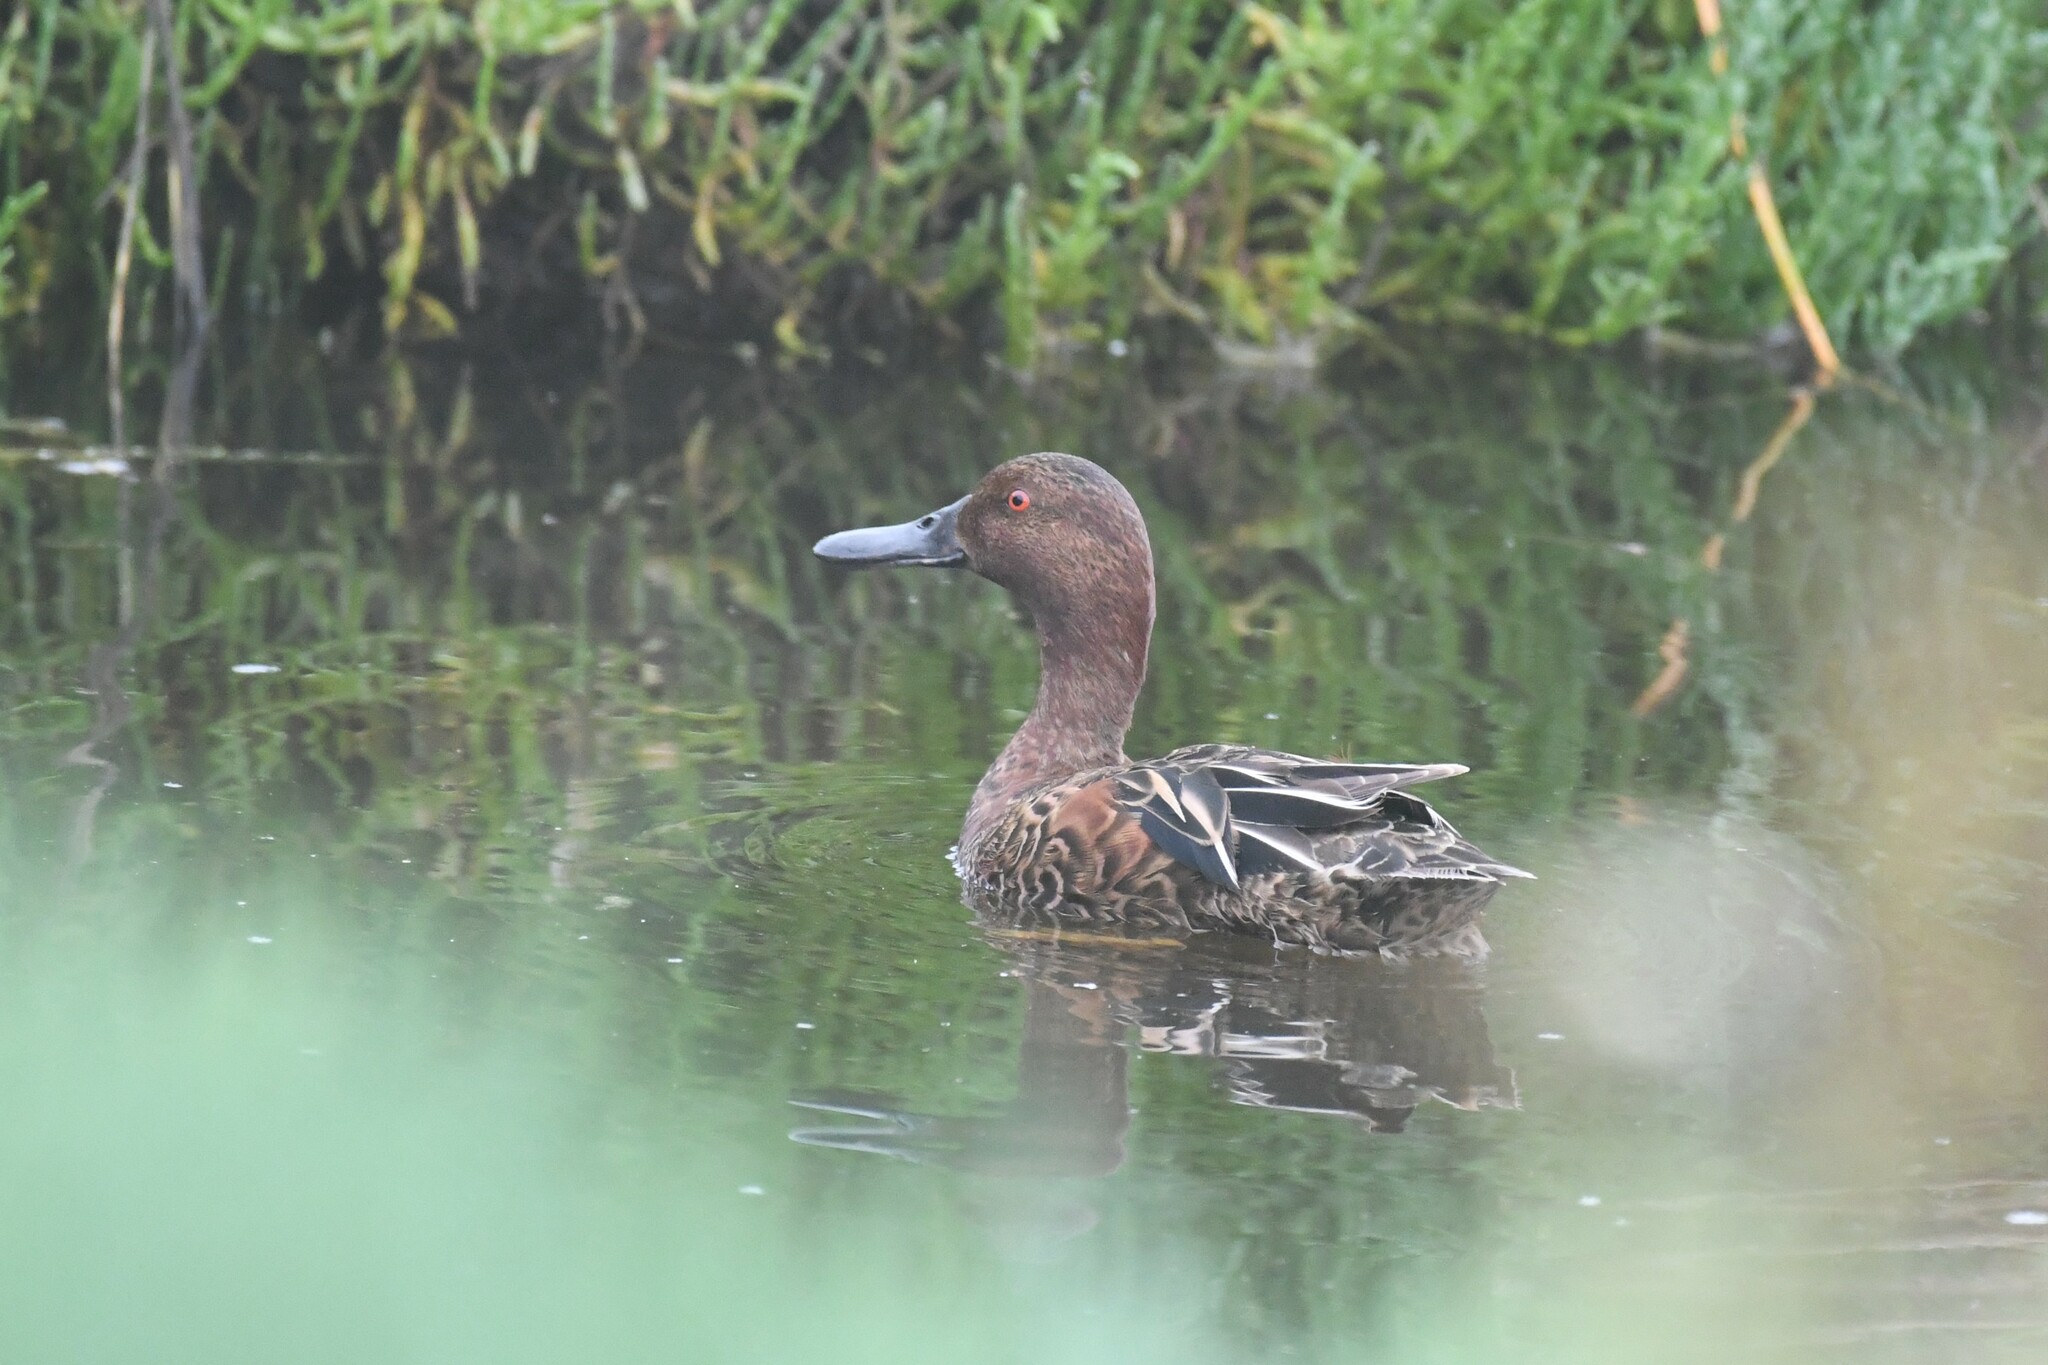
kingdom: Animalia
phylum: Chordata
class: Aves
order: Anseriformes
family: Anatidae
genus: Spatula
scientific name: Spatula cyanoptera
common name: Cinnamon teal
